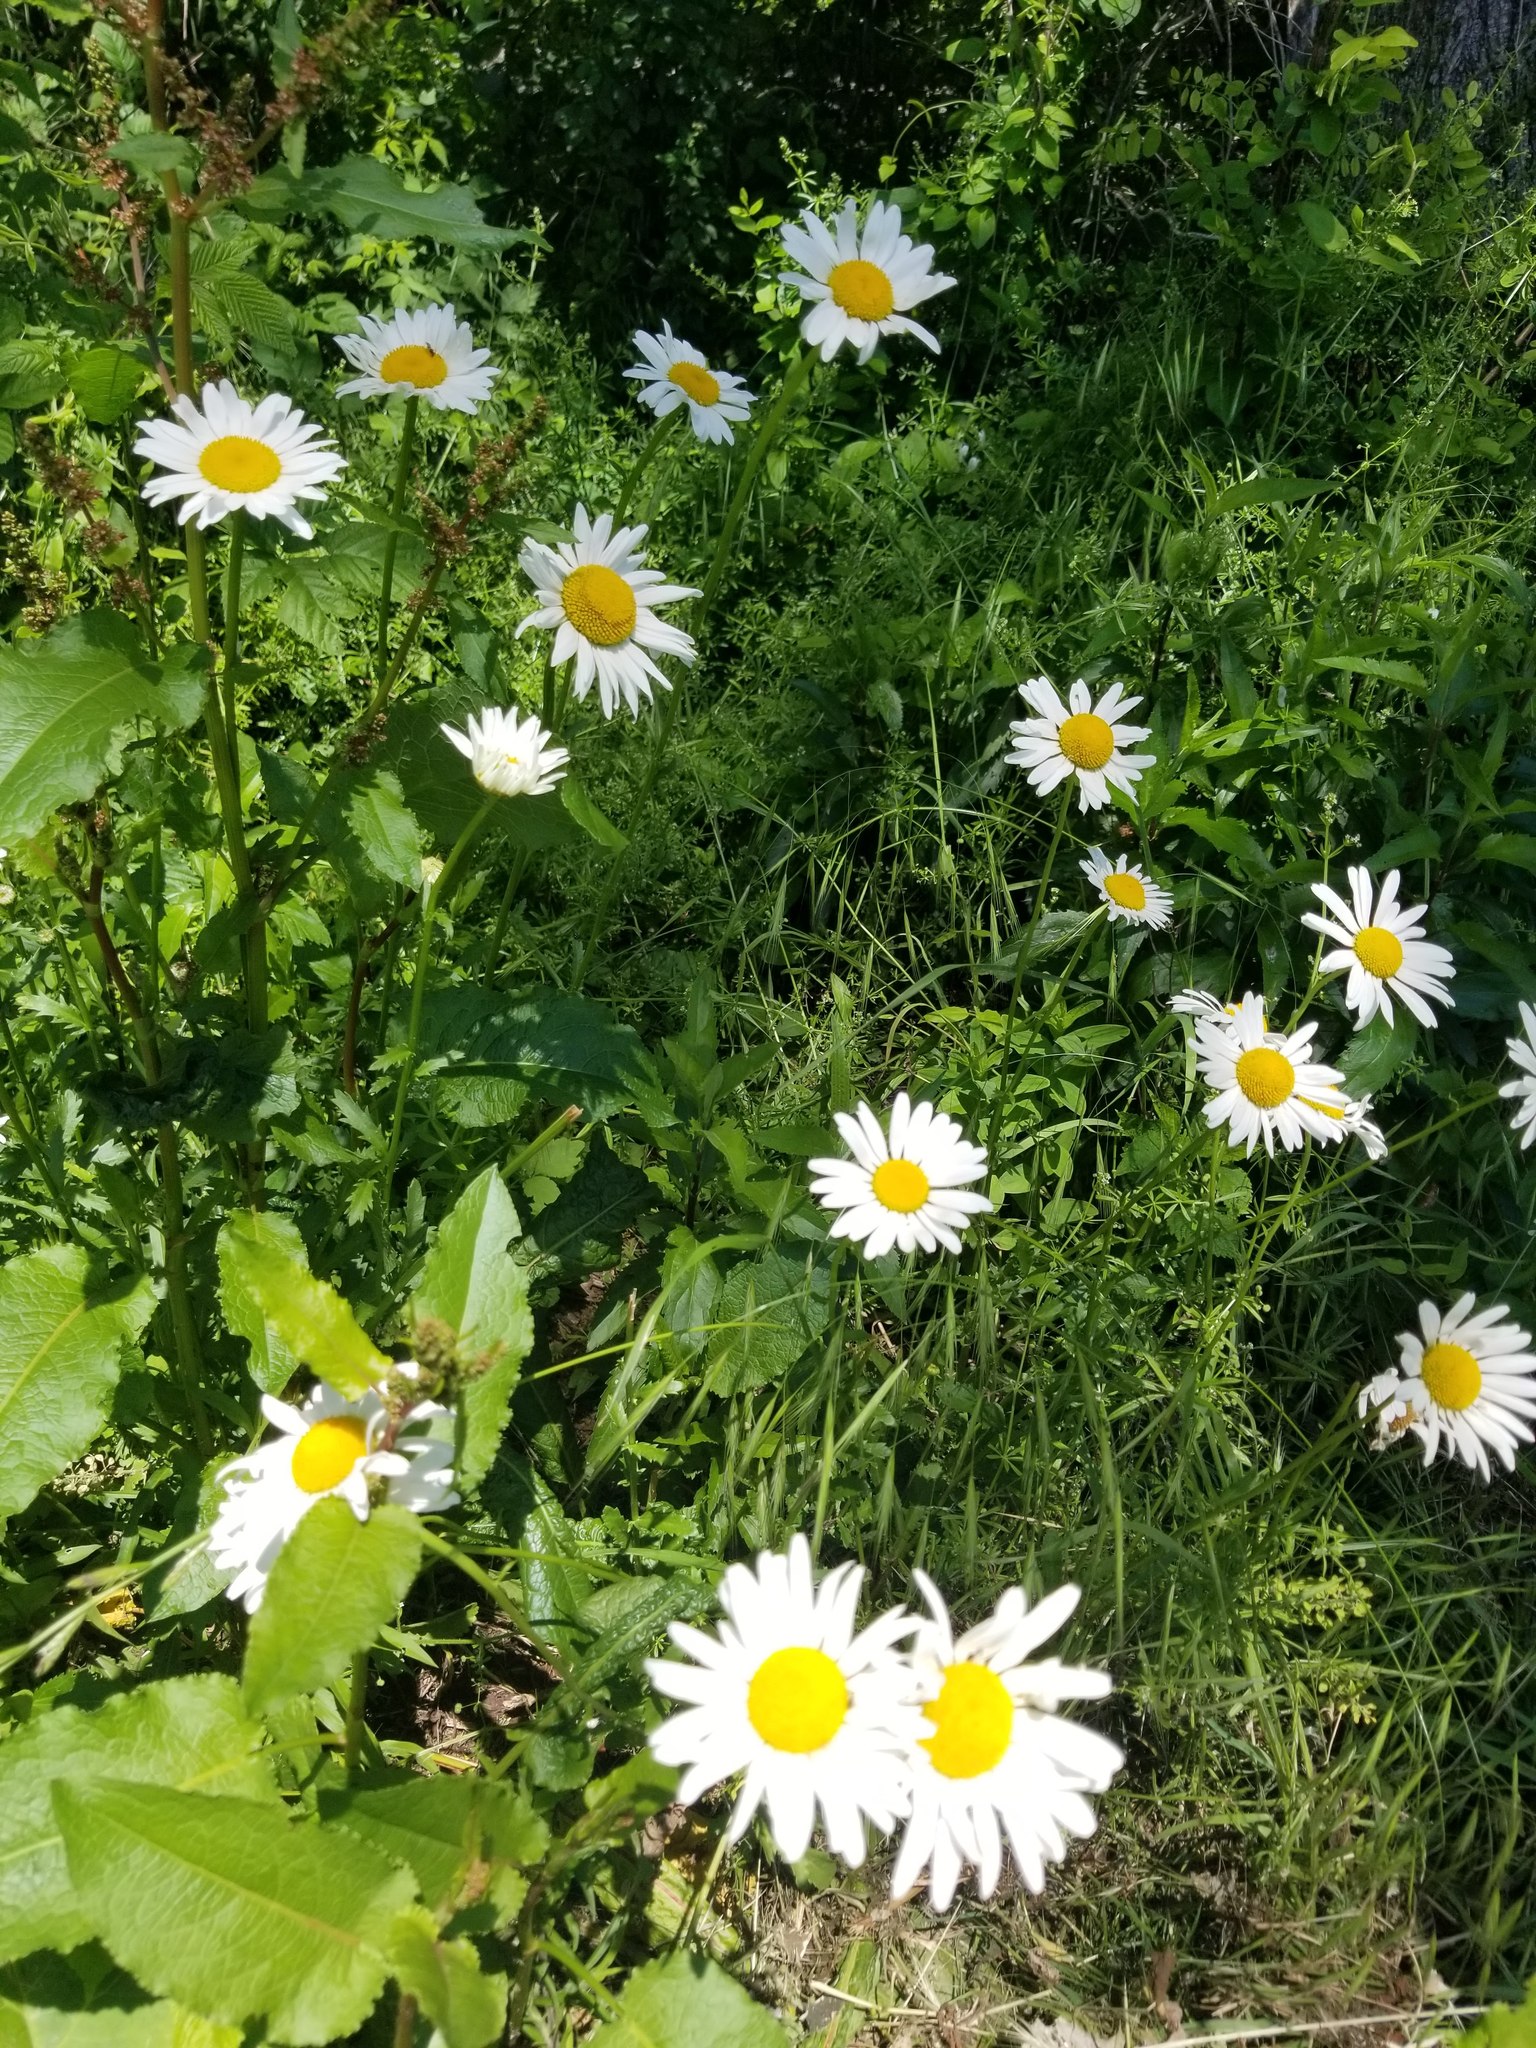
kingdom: Plantae
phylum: Tracheophyta
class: Magnoliopsida
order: Asterales
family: Asteraceae
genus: Leucanthemum
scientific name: Leucanthemum vulgare
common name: Oxeye daisy
